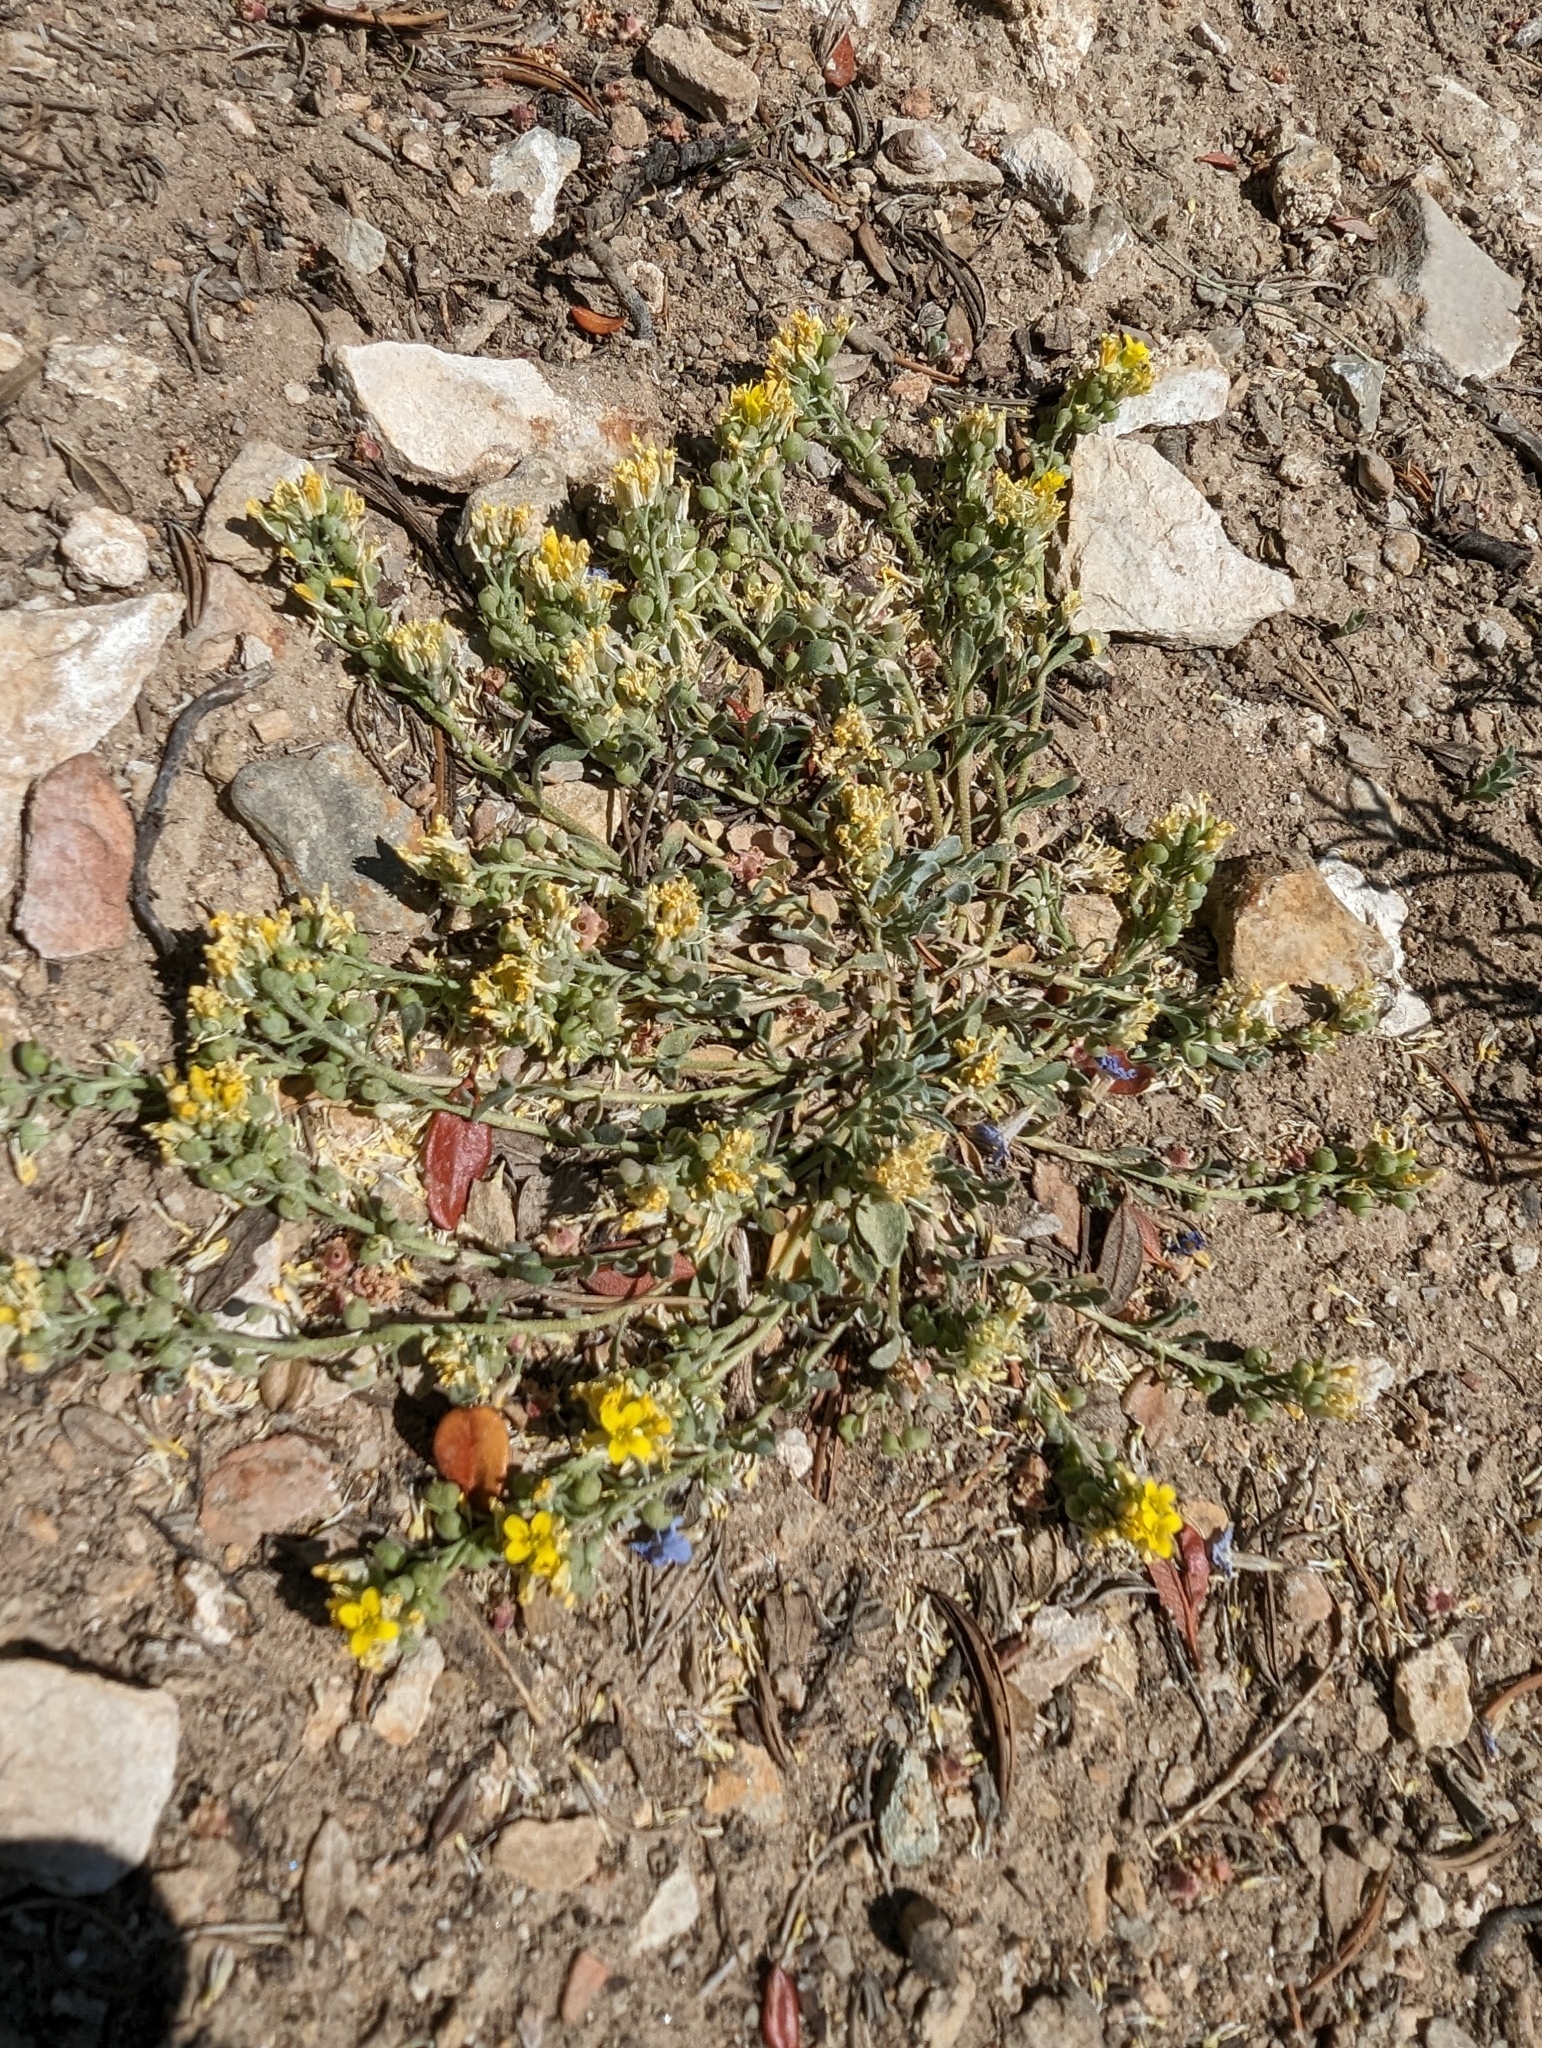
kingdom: Plantae
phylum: Tracheophyta
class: Magnoliopsida
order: Brassicales
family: Brassicaceae
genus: Physaria
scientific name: Physaria kingii
